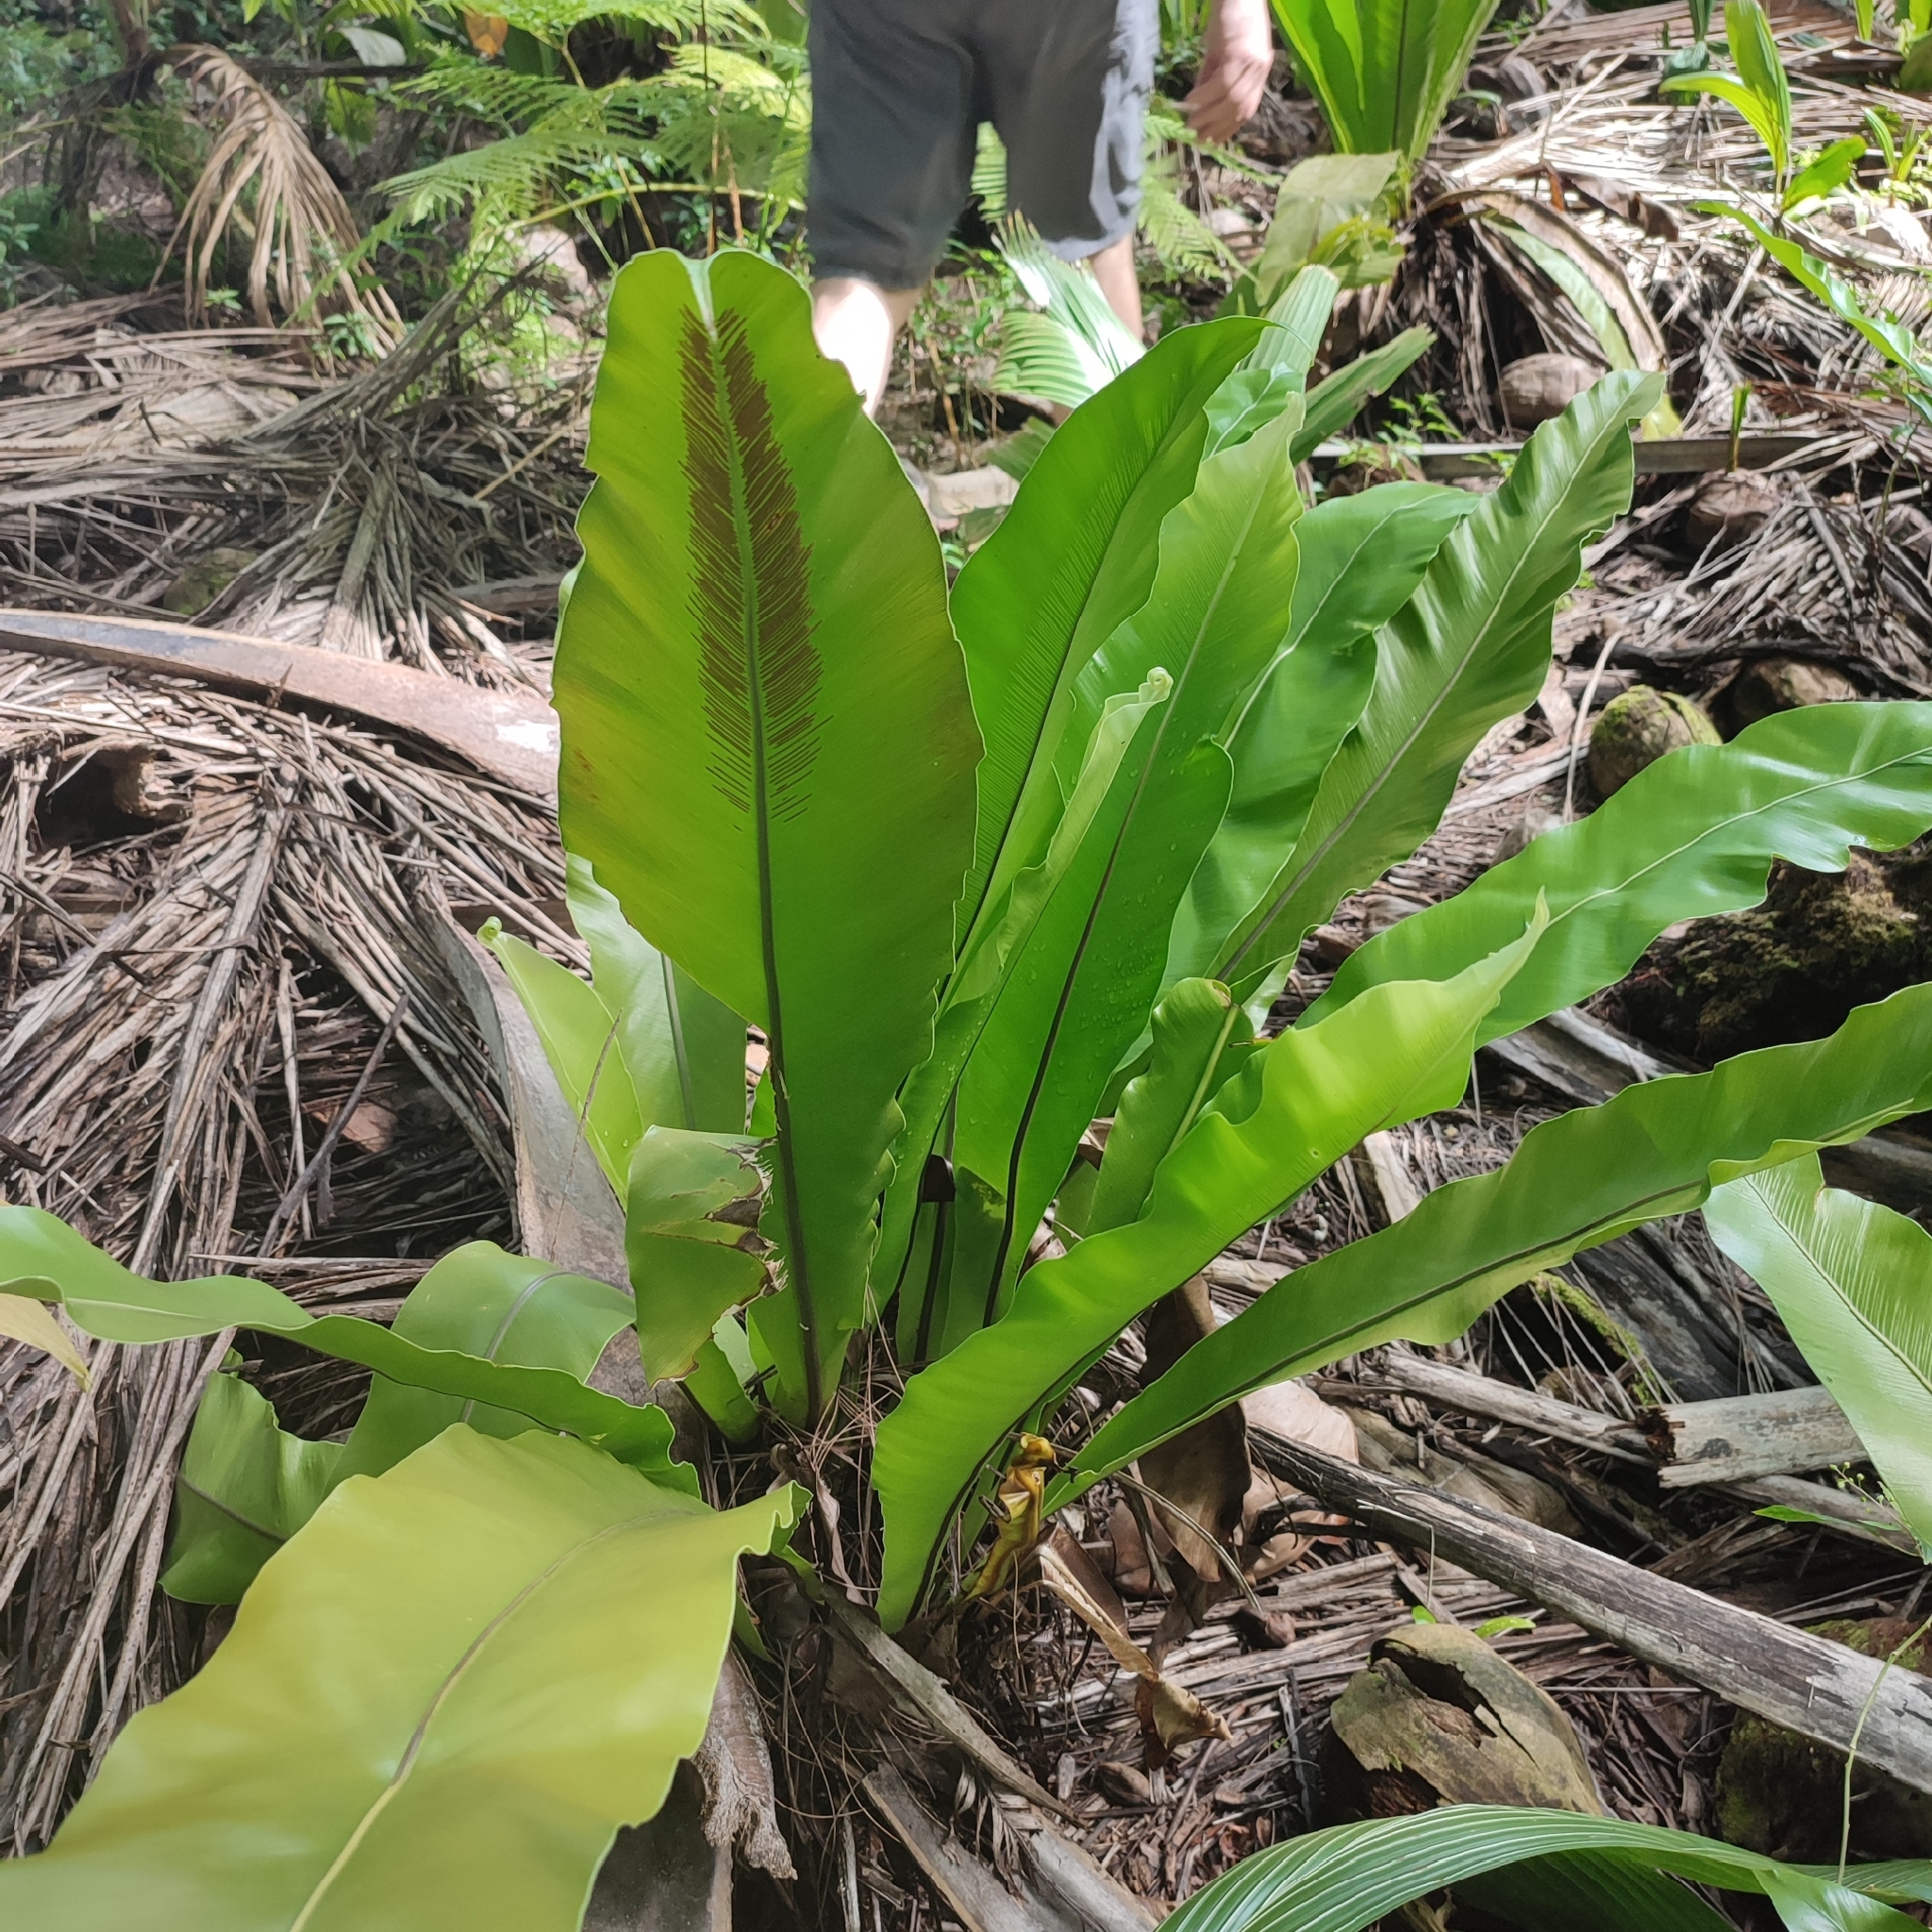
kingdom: Plantae
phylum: Tracheophyta
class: Polypodiopsida
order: Polypodiales
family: Aspleniaceae
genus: Asplenium
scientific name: Asplenium nidus
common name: Bird's-nest fern
